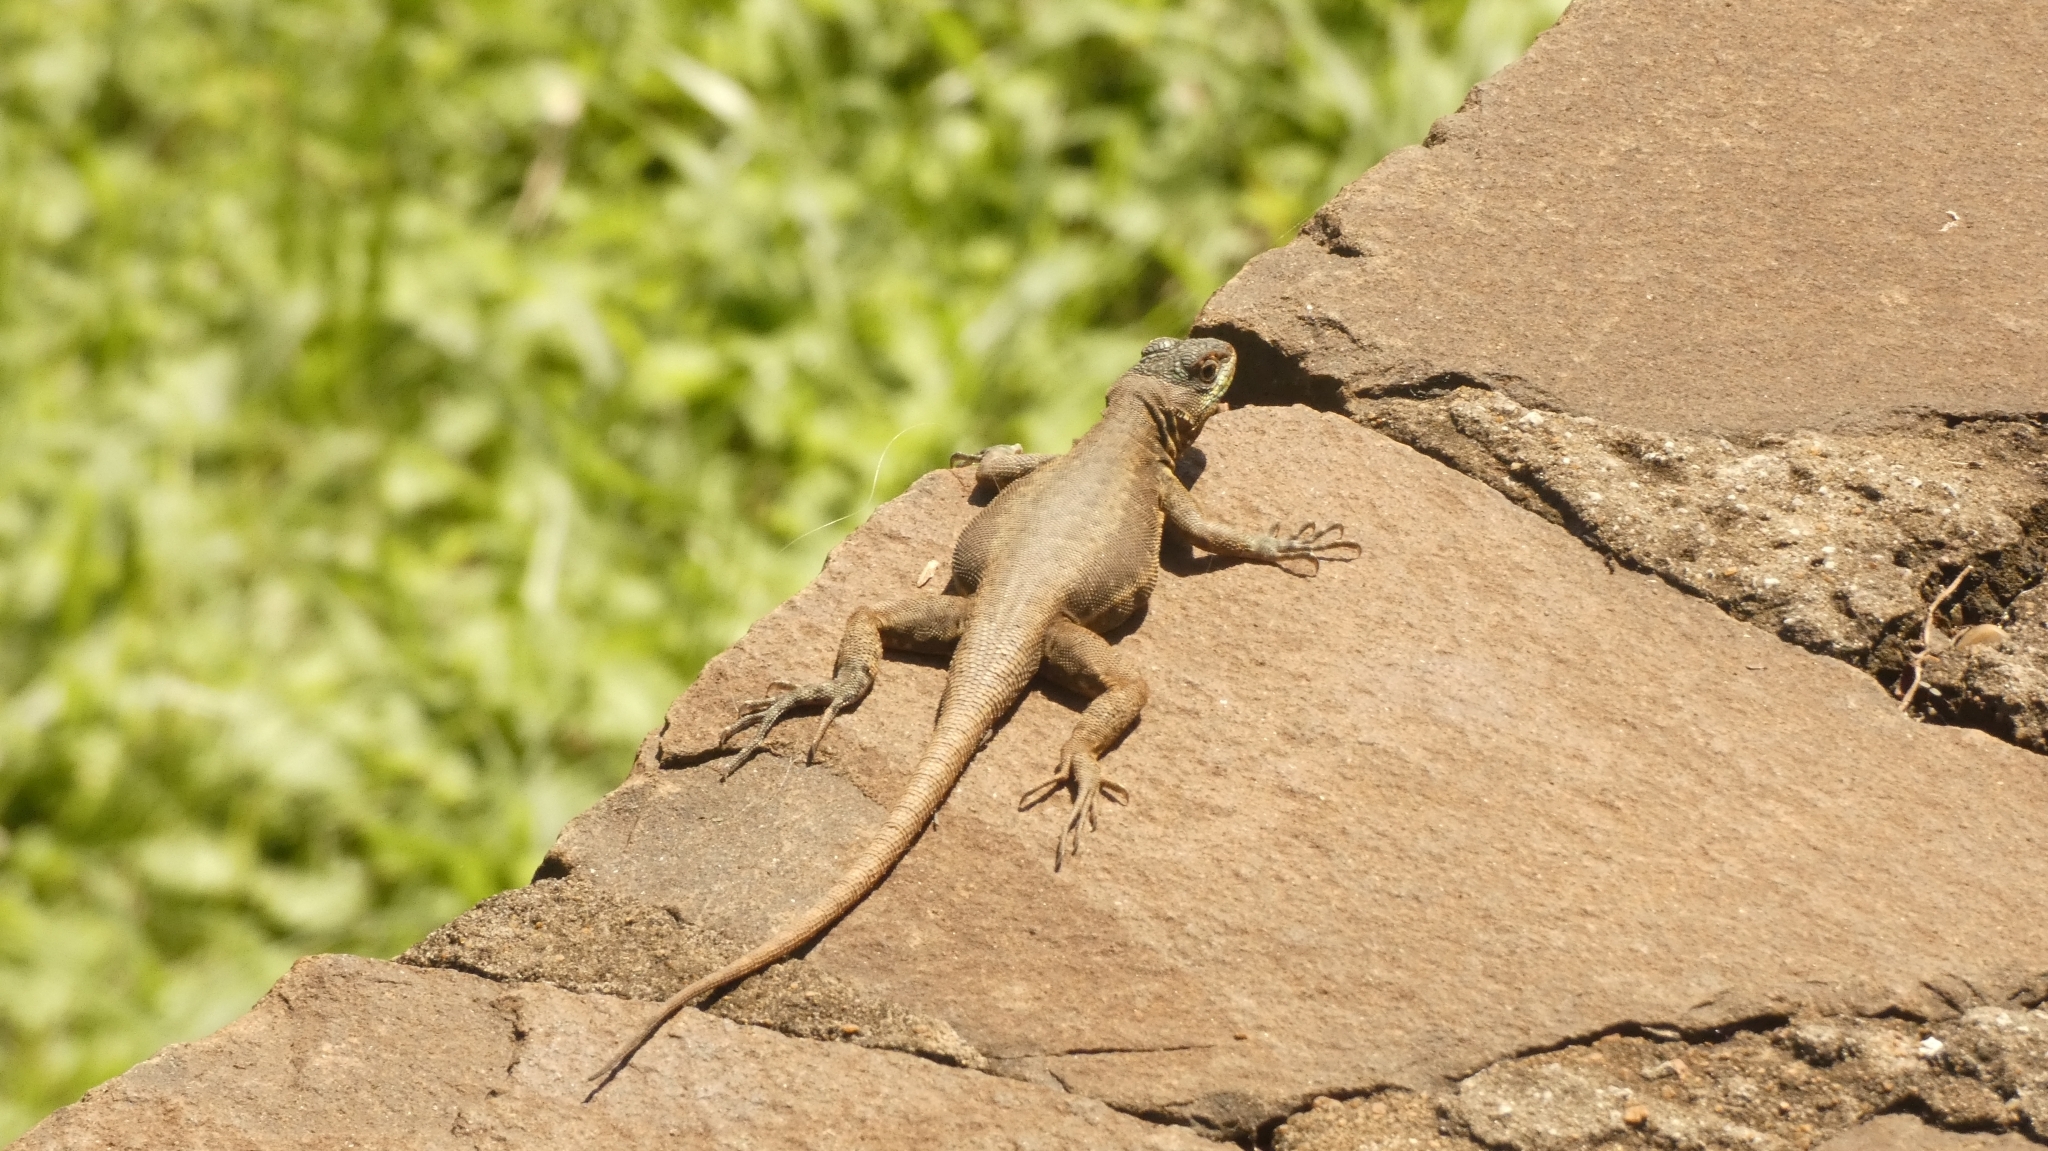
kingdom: Animalia
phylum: Chordata
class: Squamata
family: Tropiduridae
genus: Tropidurus
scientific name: Tropidurus catalanensis
